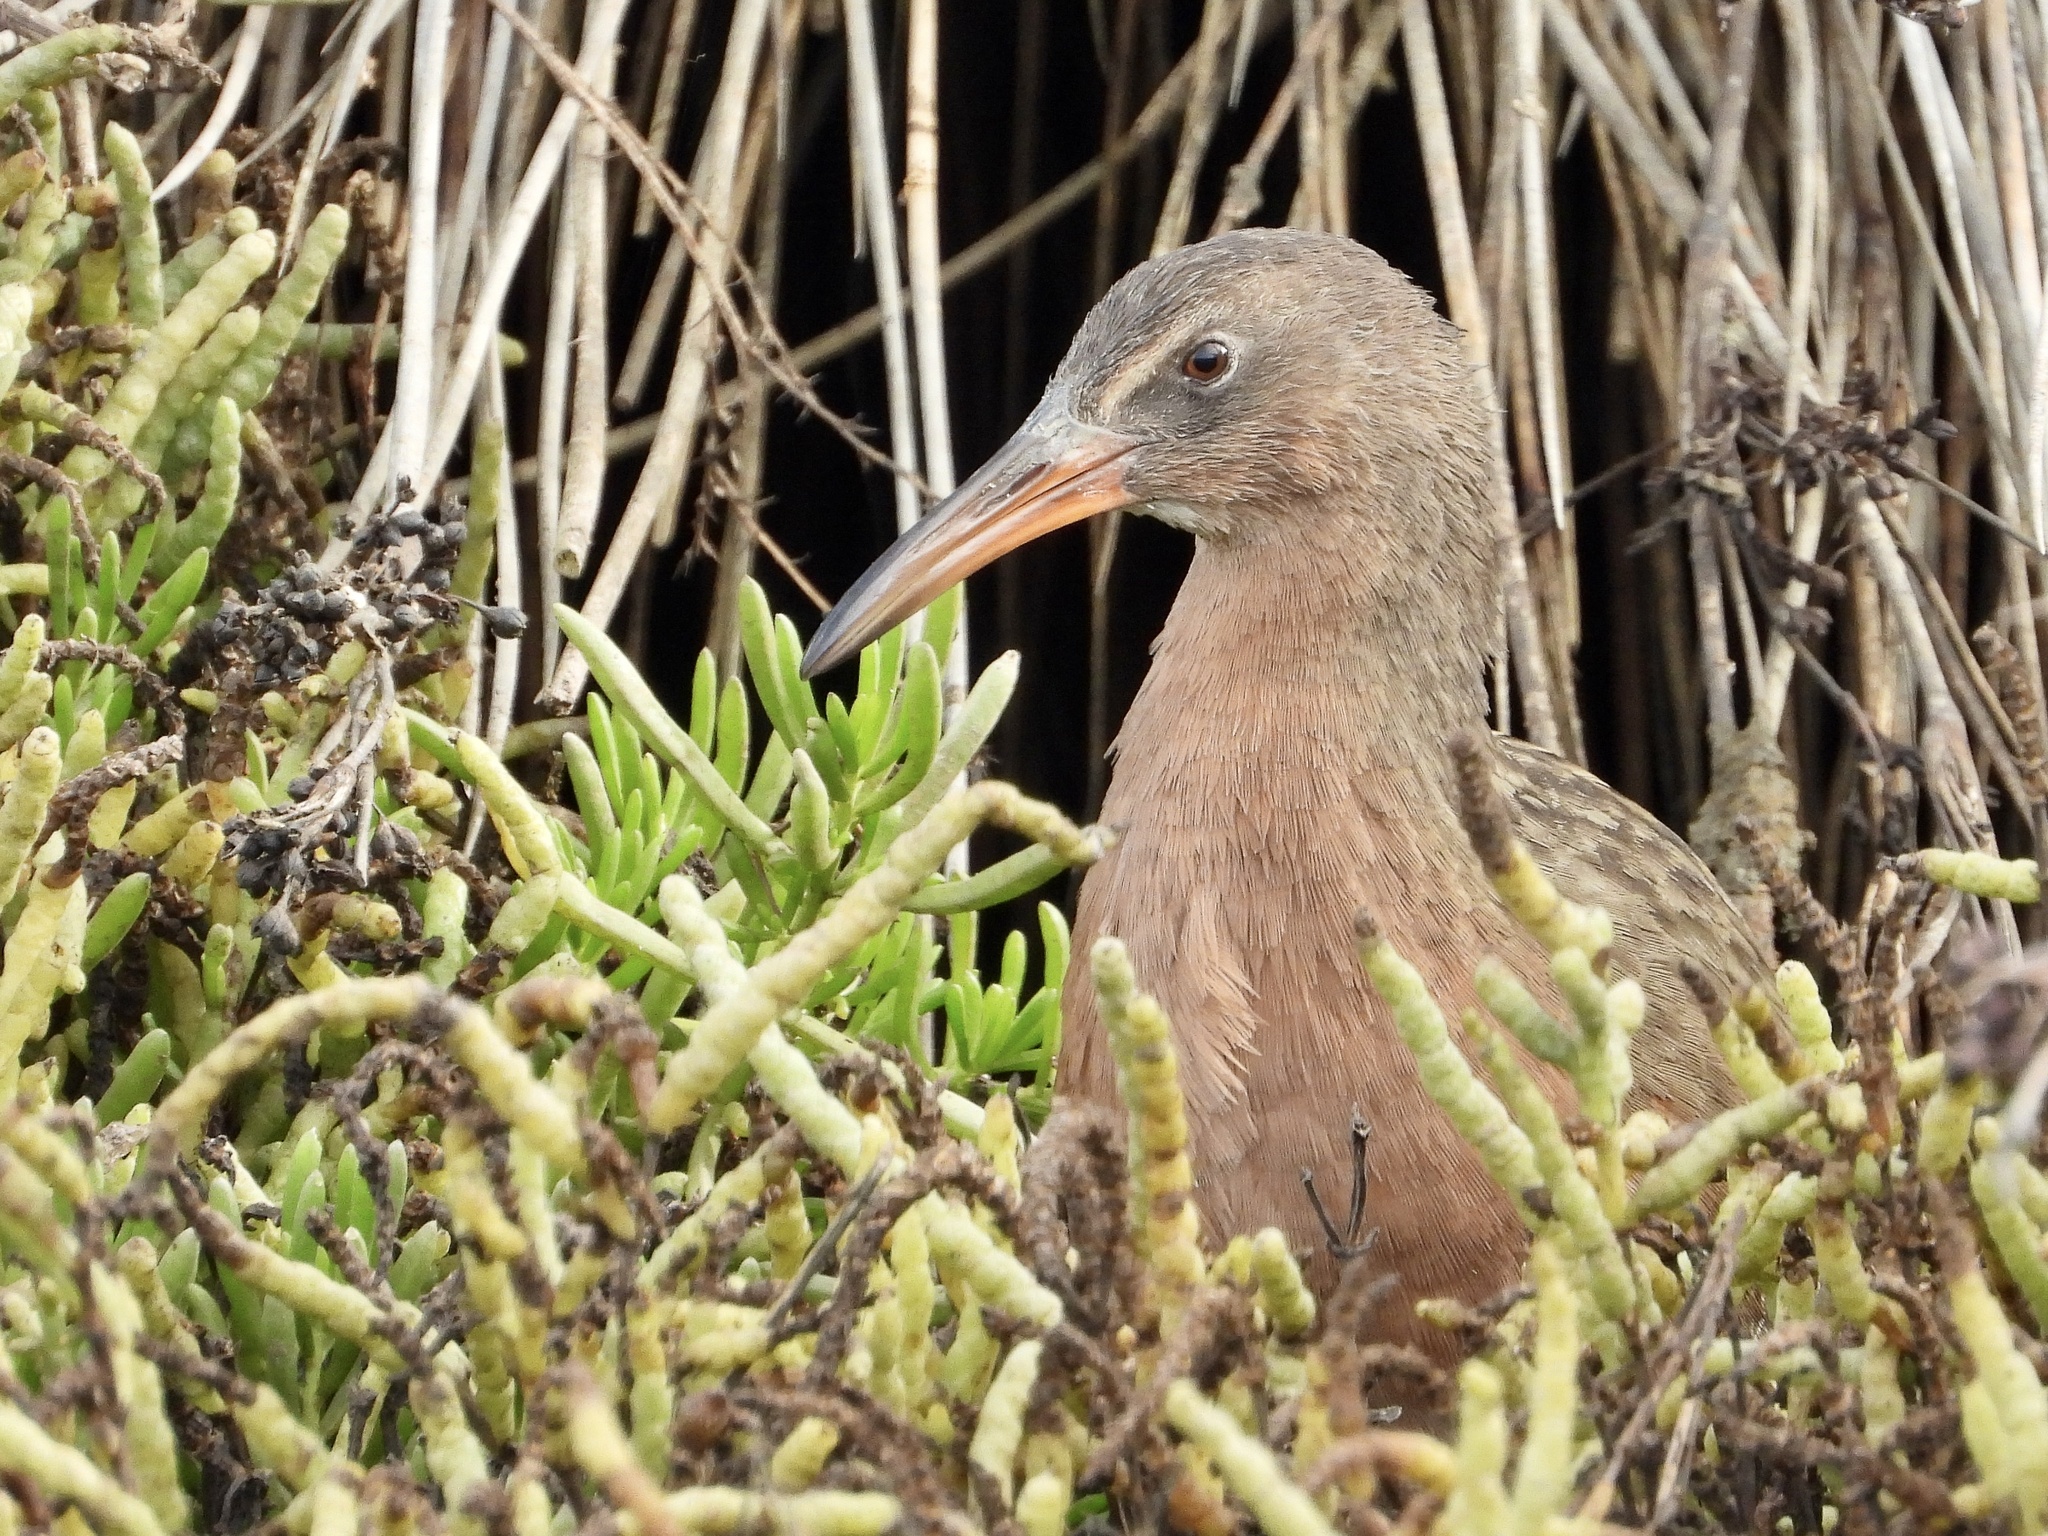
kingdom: Animalia
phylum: Chordata
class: Aves
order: Gruiformes
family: Rallidae
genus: Rallus
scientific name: Rallus obsoletus
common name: Ridgway's rail
